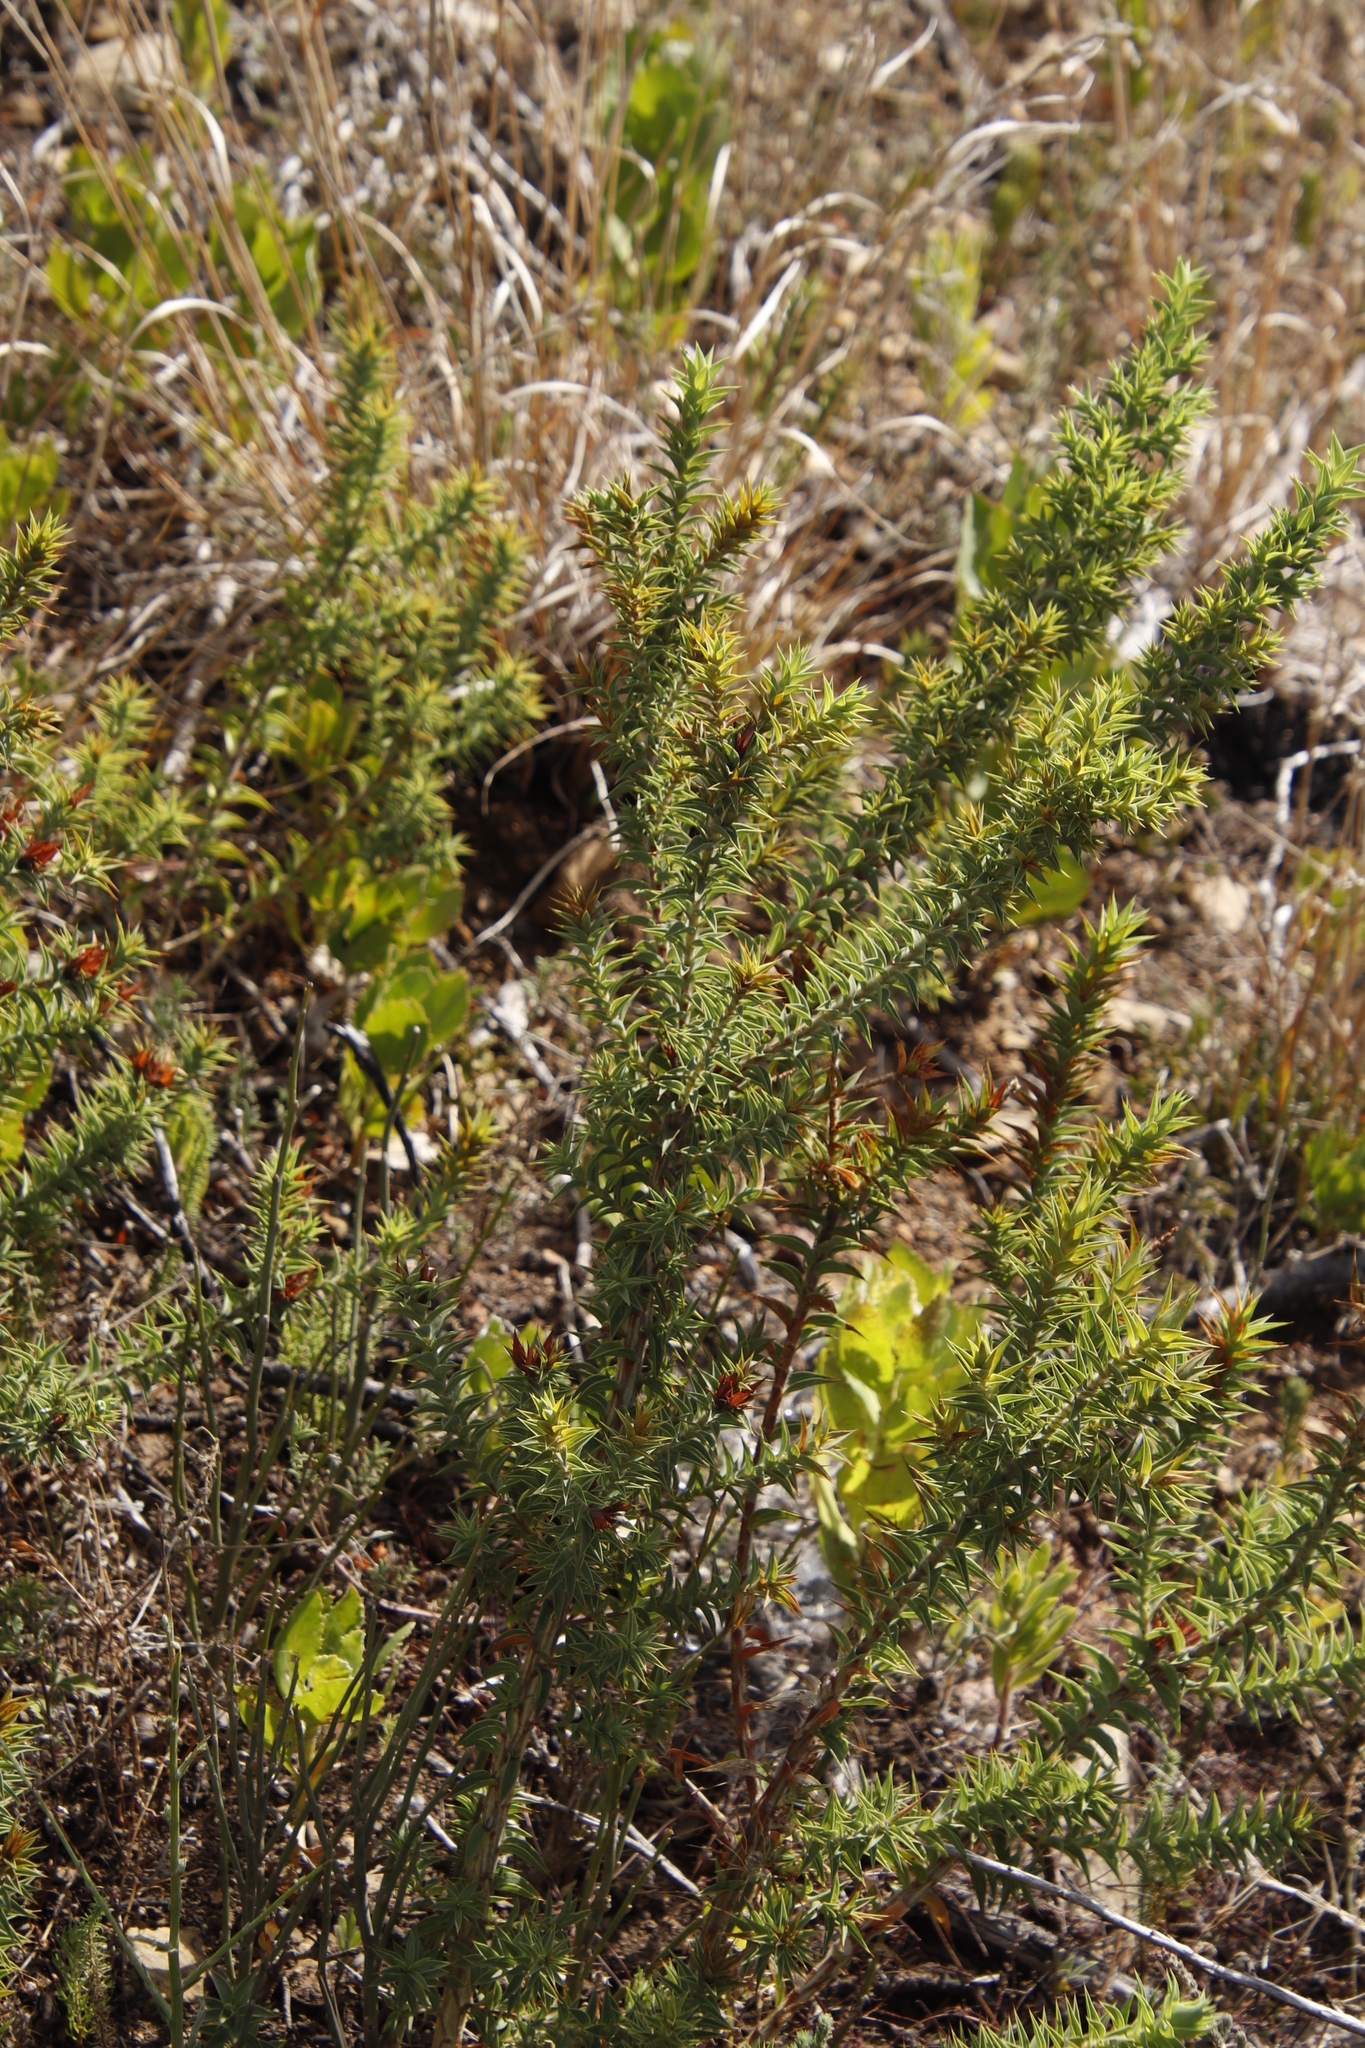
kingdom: Plantae
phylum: Tracheophyta
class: Magnoliopsida
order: Fabales
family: Fabaceae
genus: Aspalathus
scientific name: Aspalathus cordata
